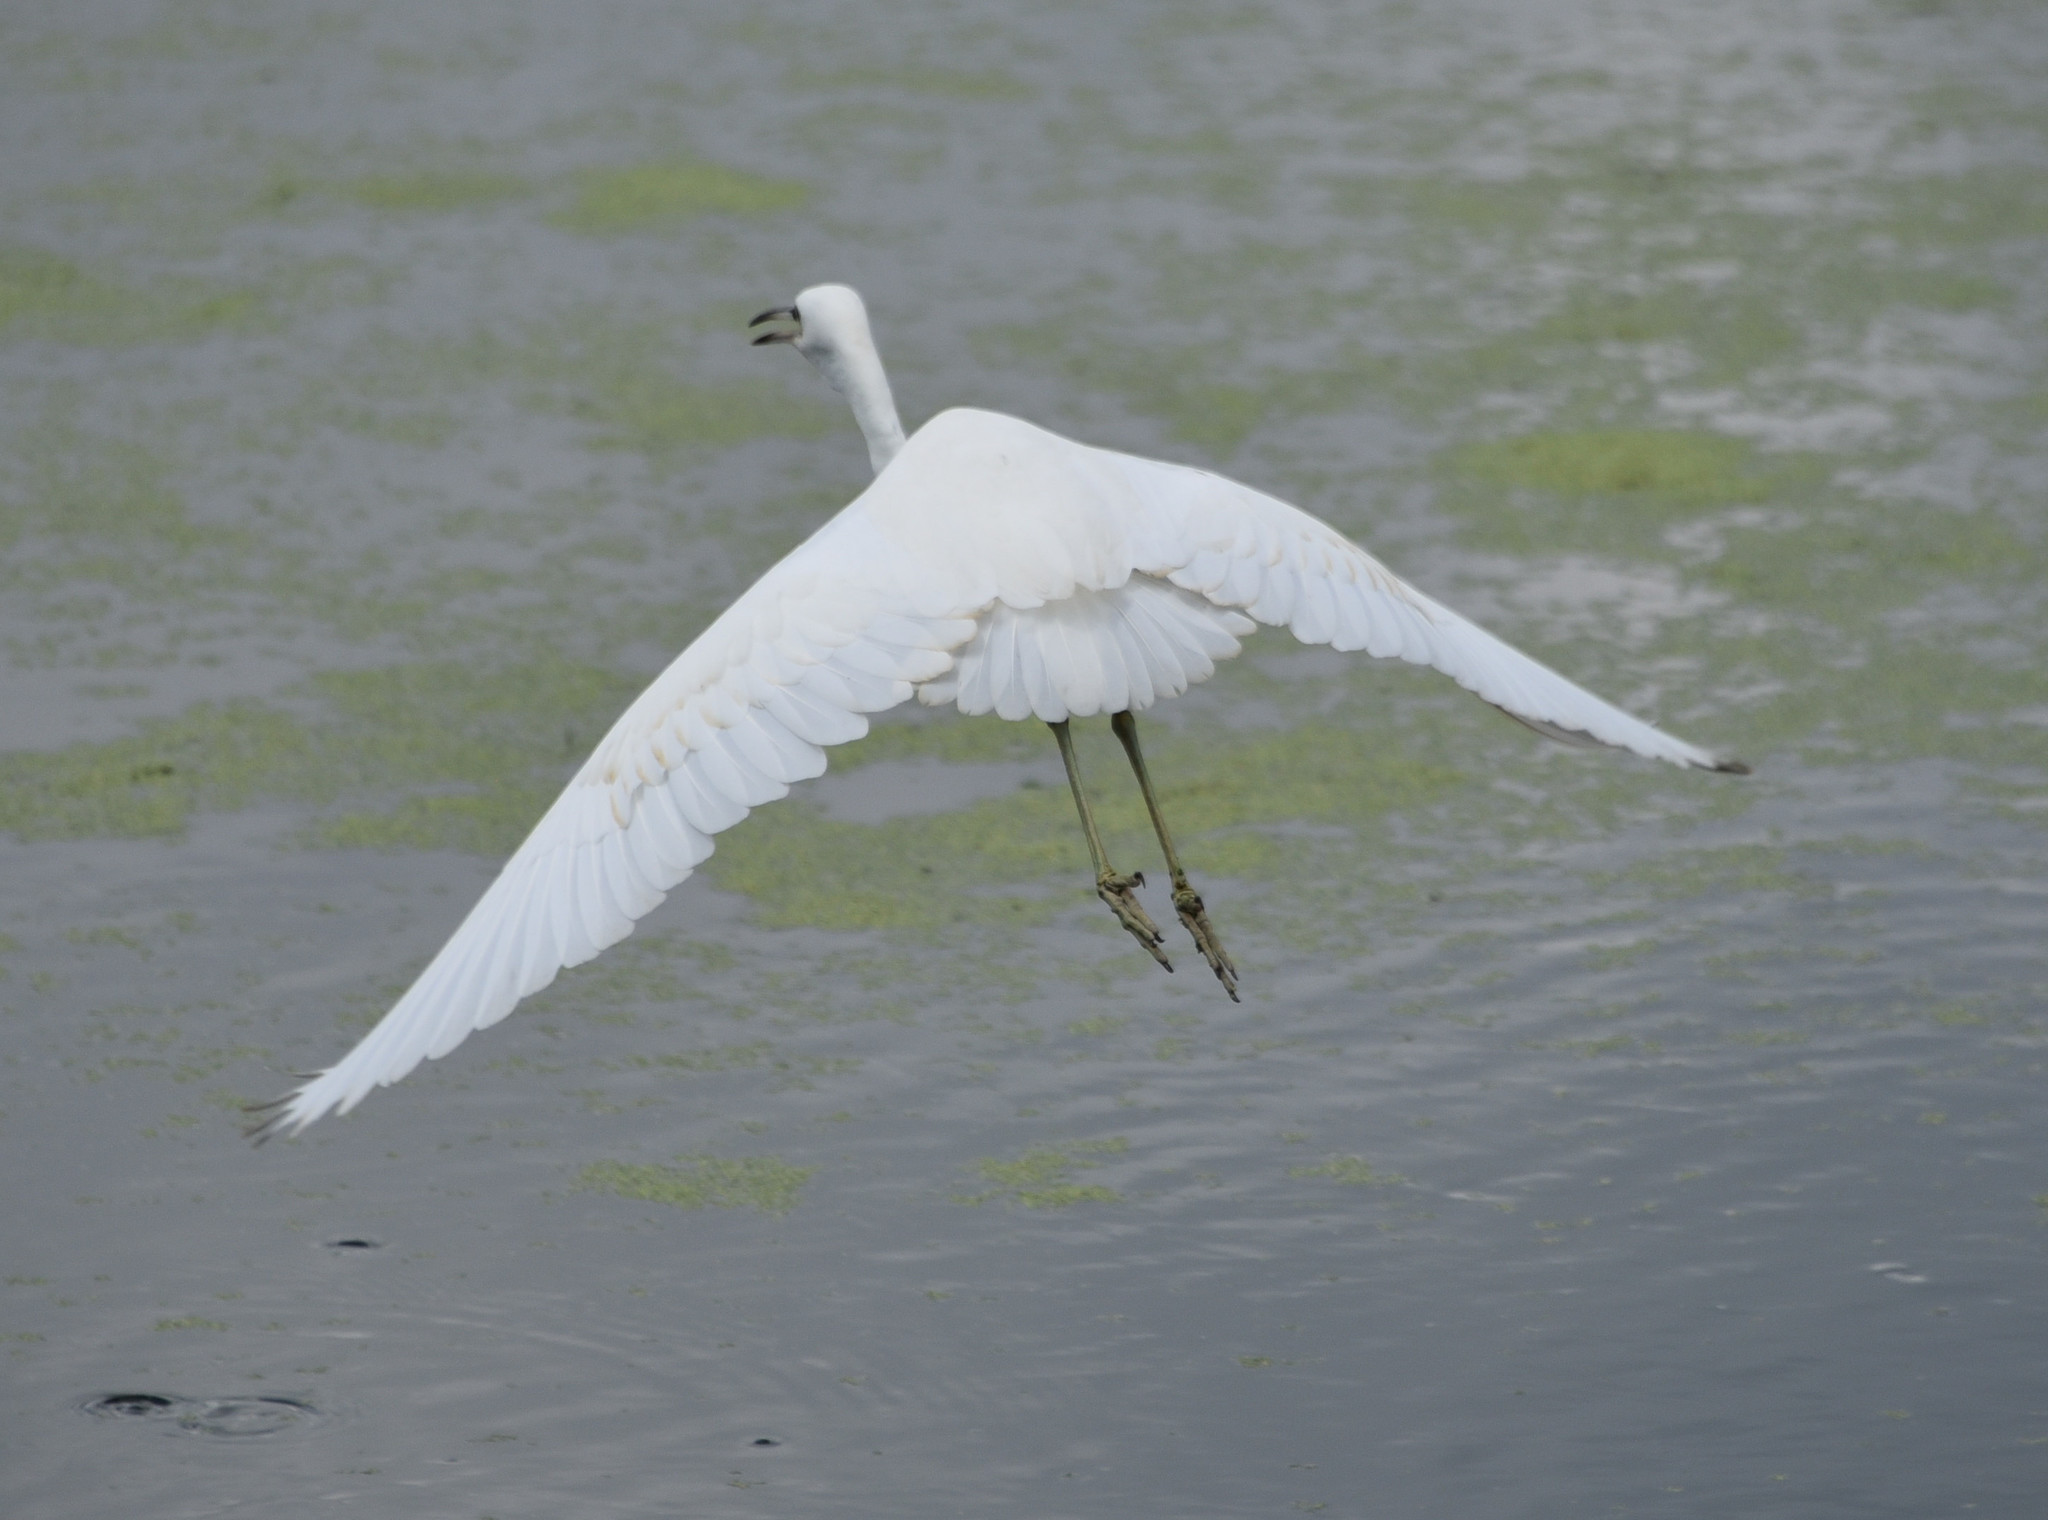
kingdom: Animalia
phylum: Chordata
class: Aves
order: Pelecaniformes
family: Ardeidae
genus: Egretta
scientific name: Egretta caerulea
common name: Little blue heron
